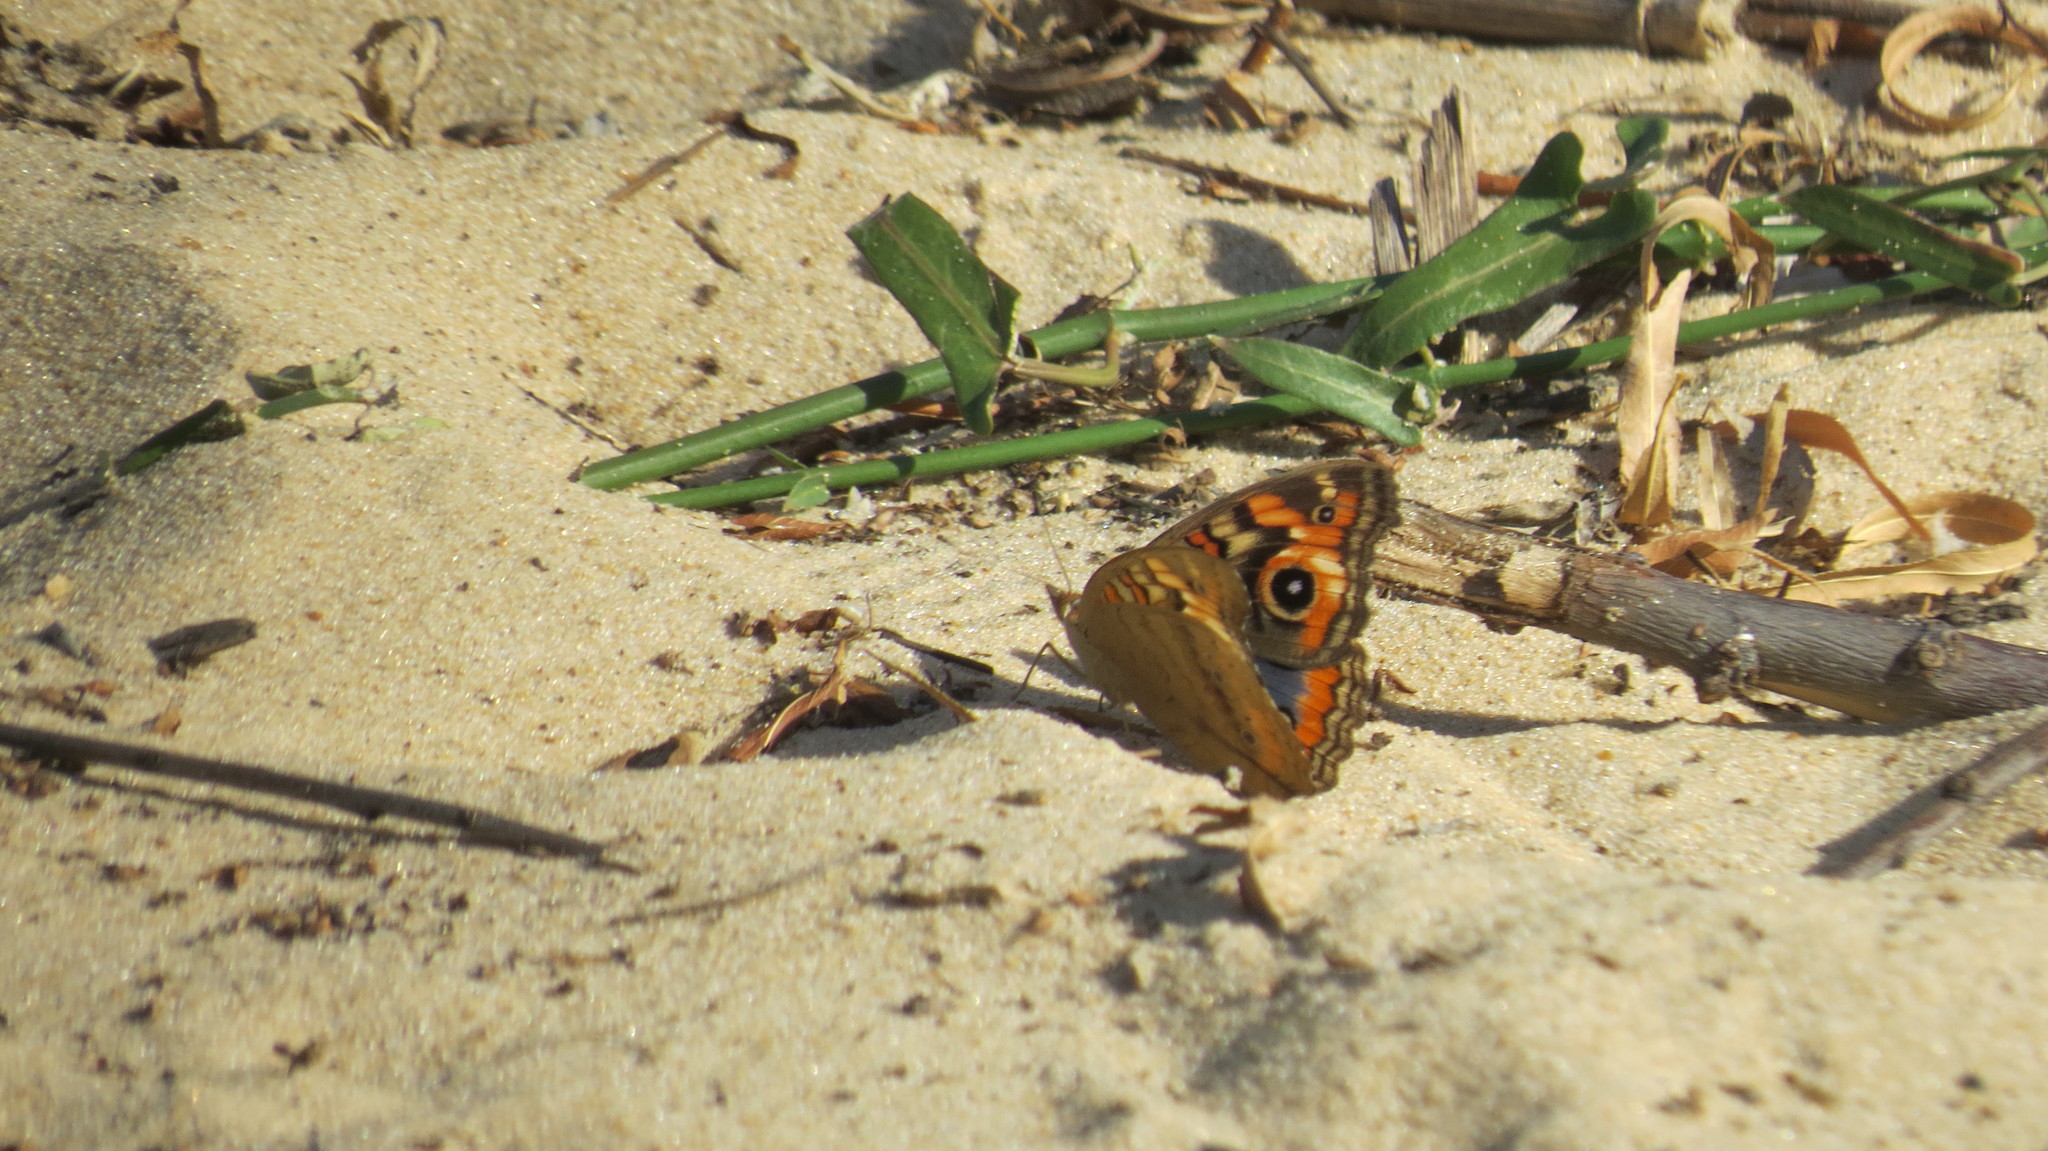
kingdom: Animalia
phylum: Arthropoda
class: Insecta
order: Lepidoptera
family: Nymphalidae
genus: Junonia
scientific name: Junonia lavinia
